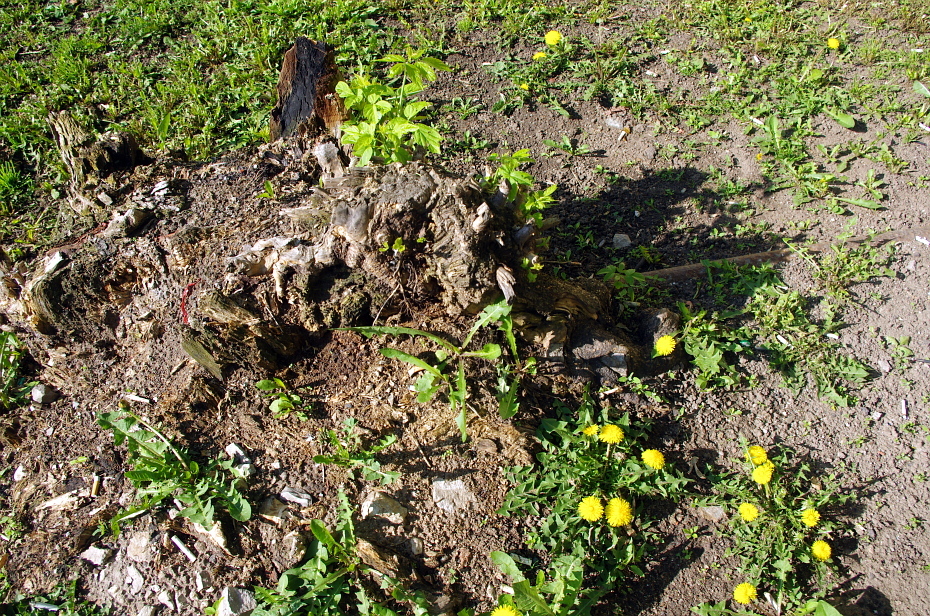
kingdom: Plantae
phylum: Tracheophyta
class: Magnoliopsida
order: Asterales
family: Asteraceae
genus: Taraxacum
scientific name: Taraxacum officinale
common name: Common dandelion
